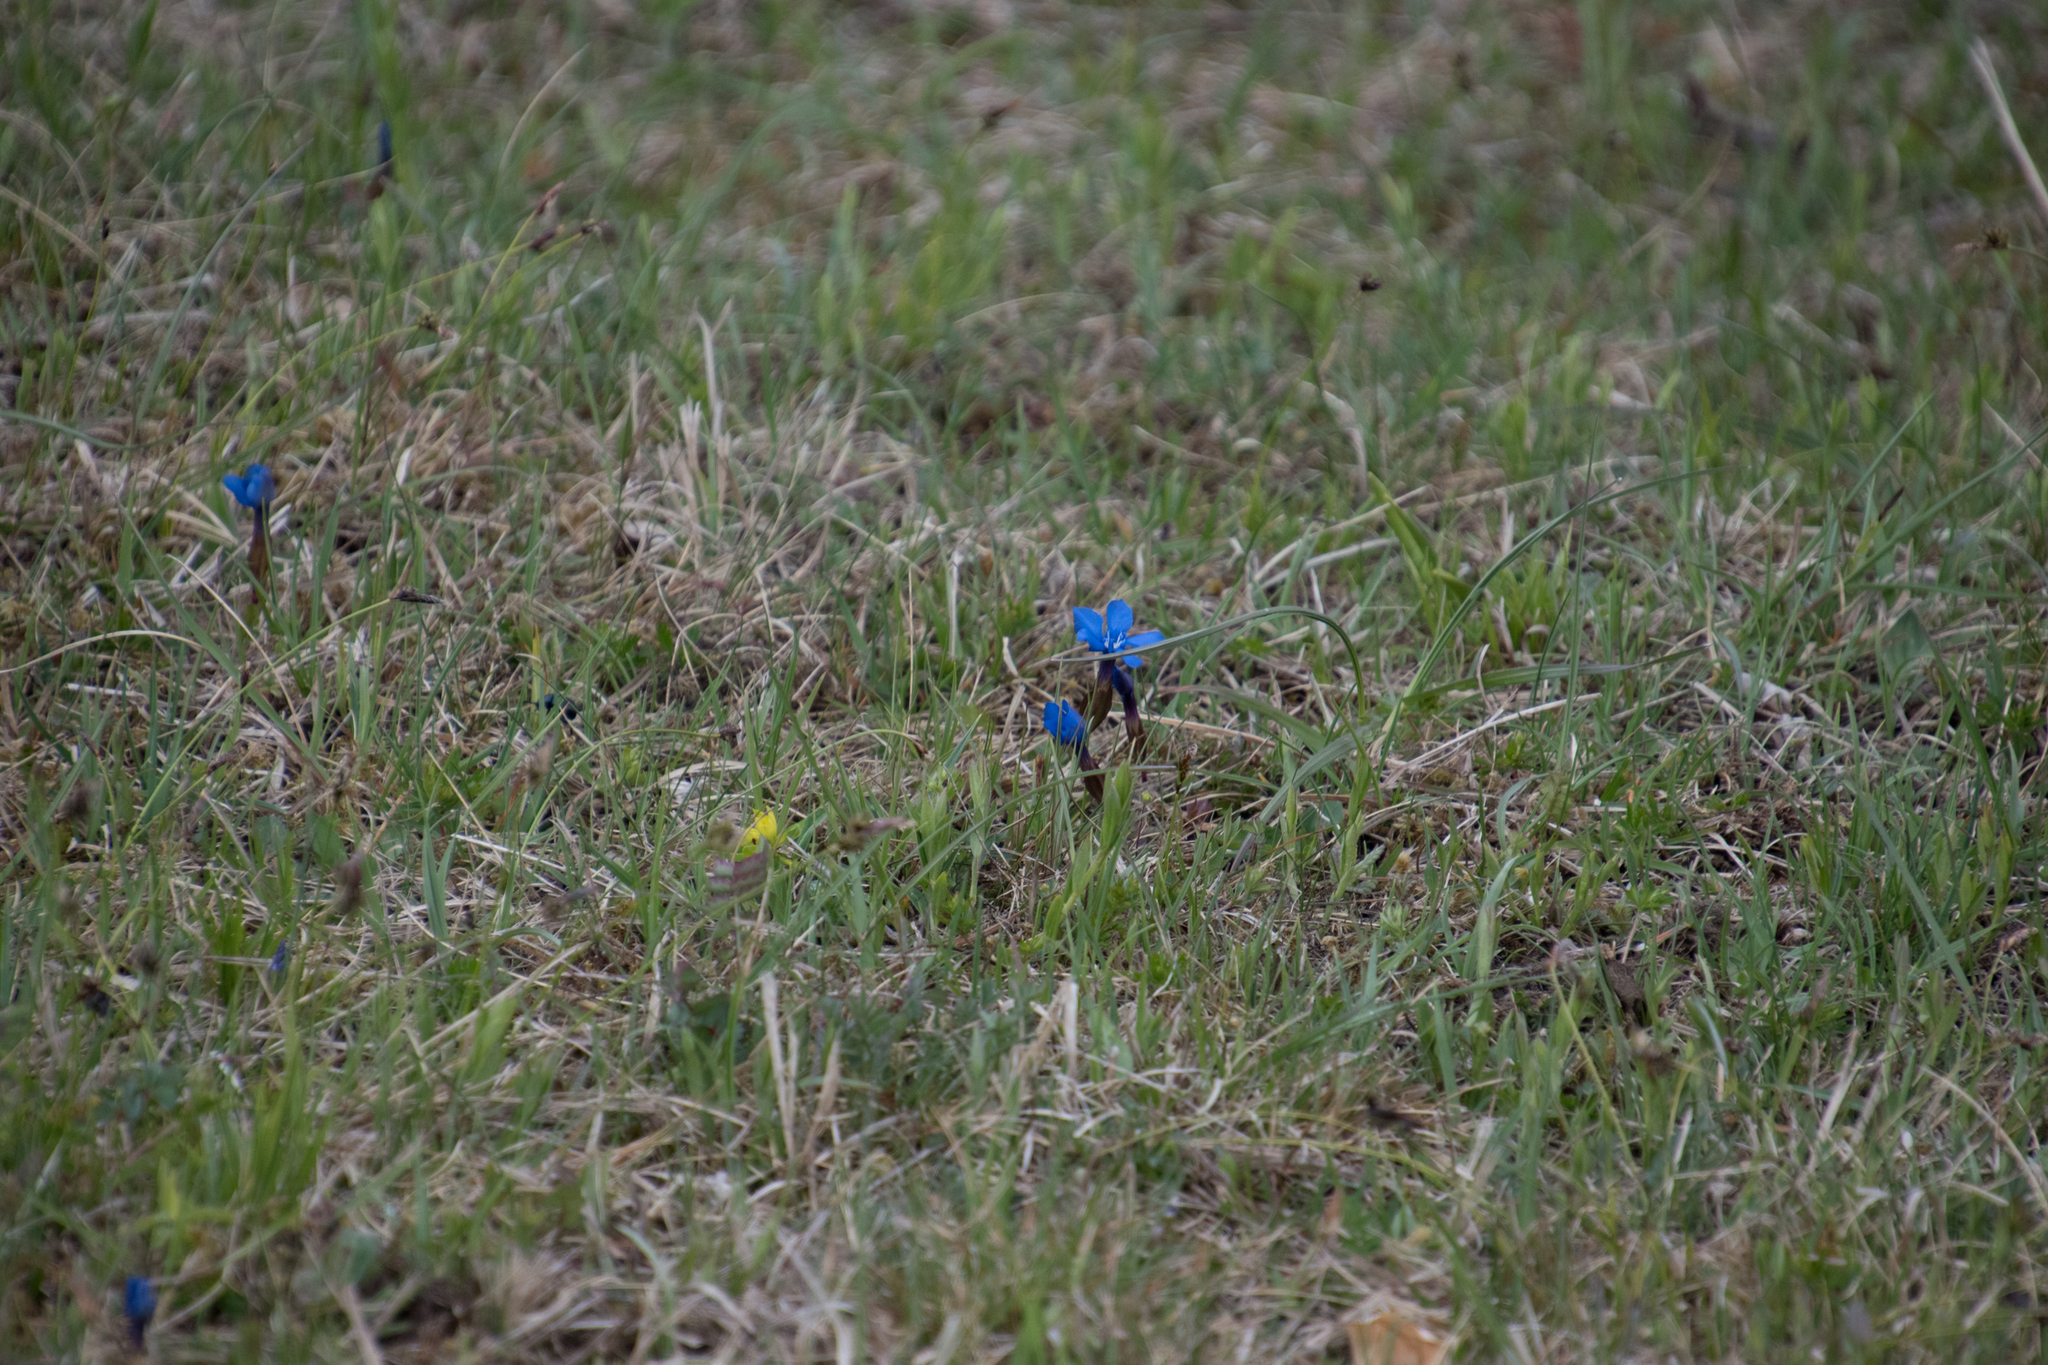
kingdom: Plantae
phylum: Tracheophyta
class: Magnoliopsida
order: Gentianales
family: Gentianaceae
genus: Gentiana
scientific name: Gentiana verna
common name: Spring gentian
